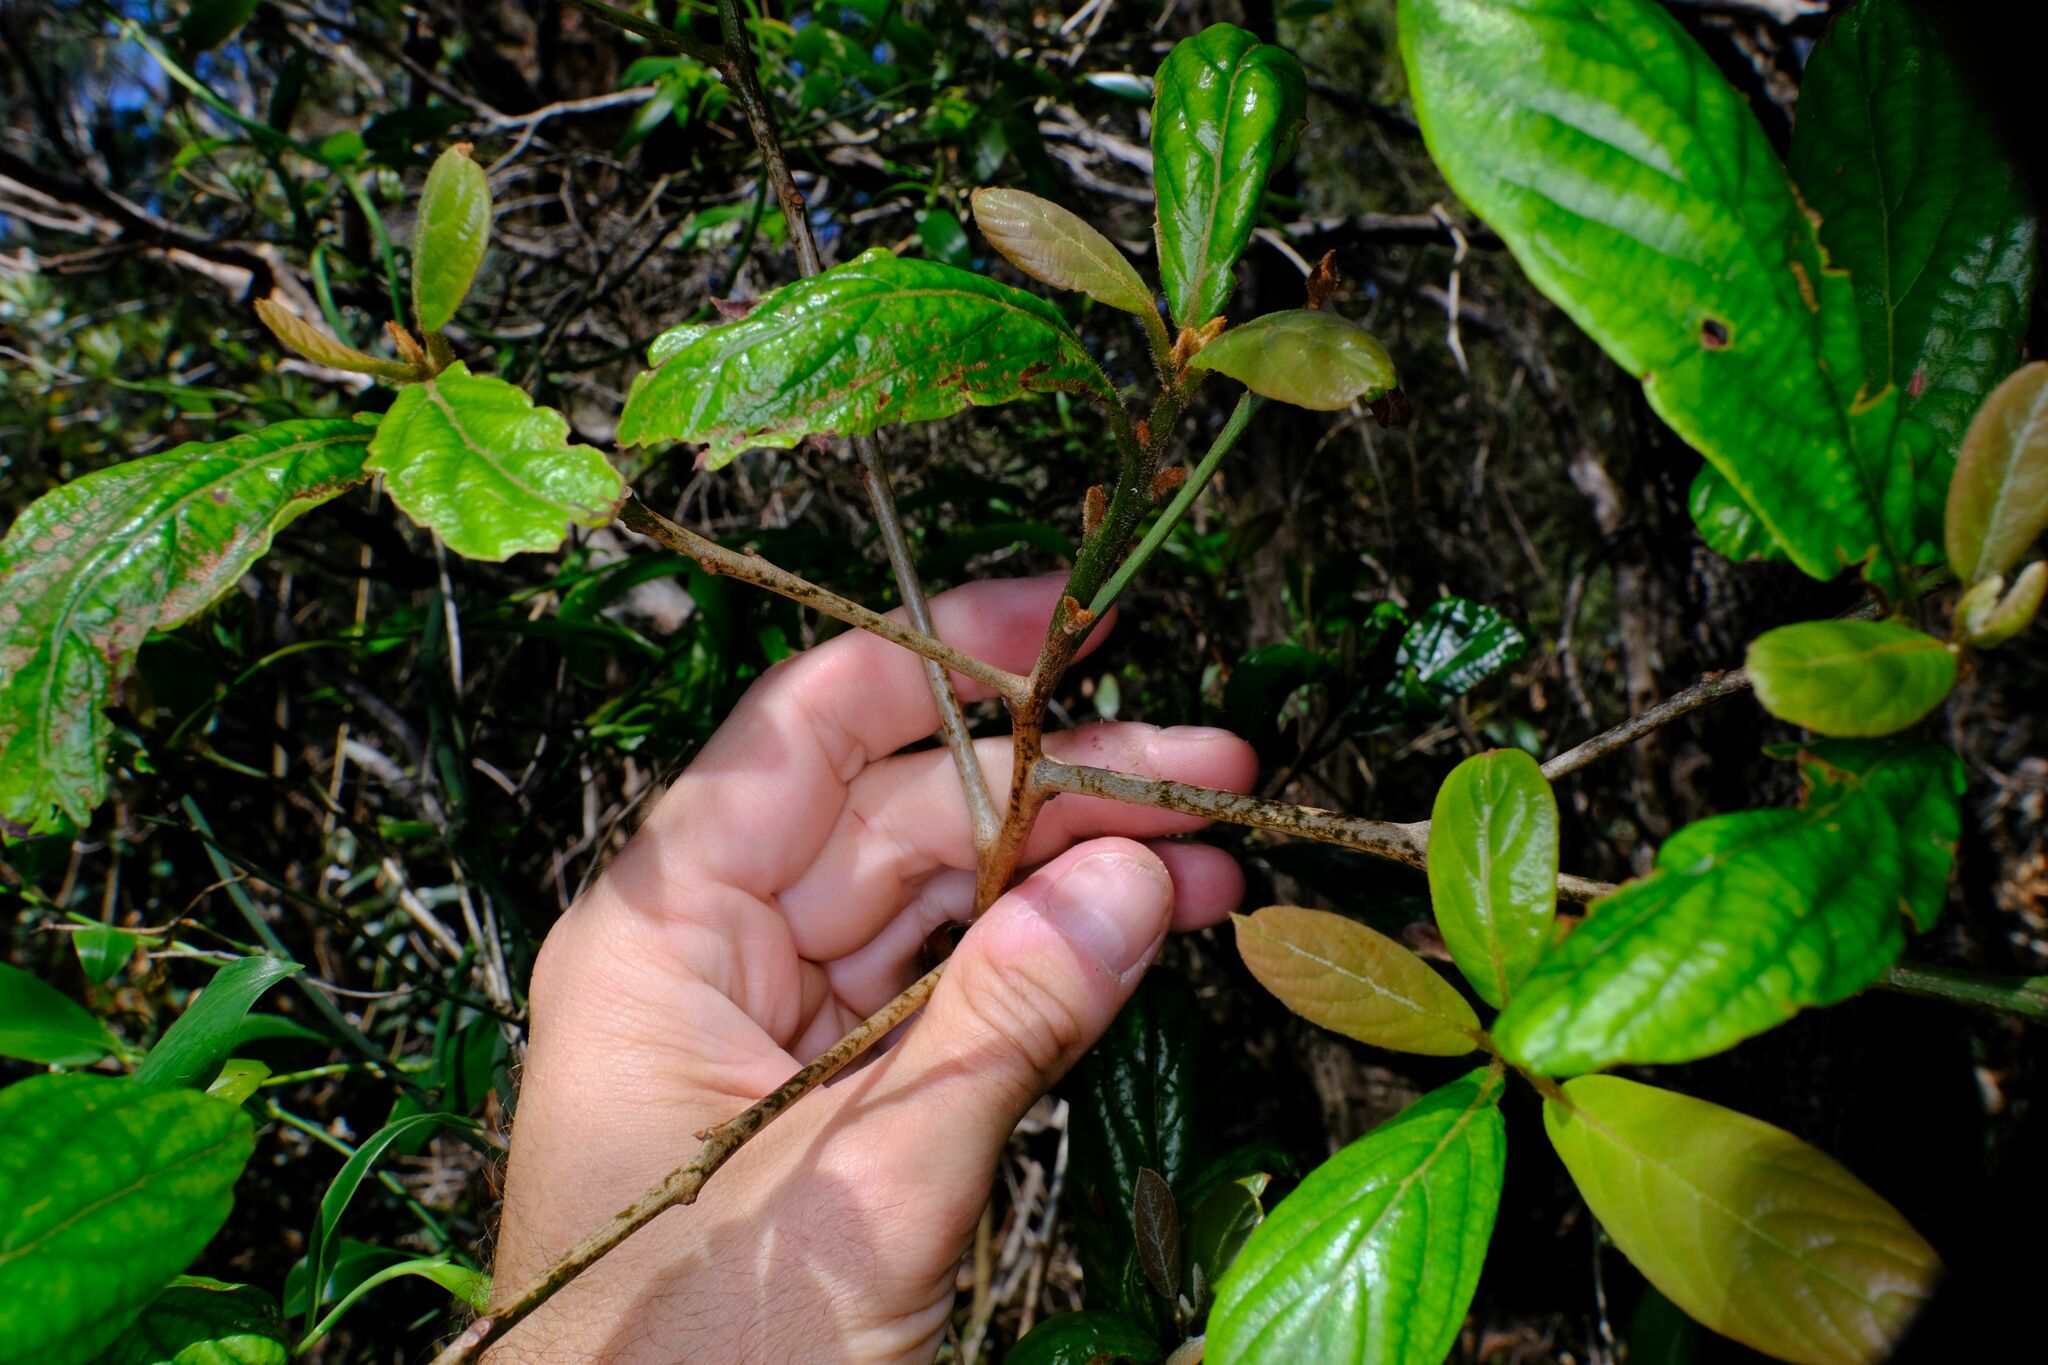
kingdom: Plantae
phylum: Tracheophyta
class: Magnoliopsida
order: Laurales
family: Lauraceae
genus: Litsea
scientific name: Litsea australis
